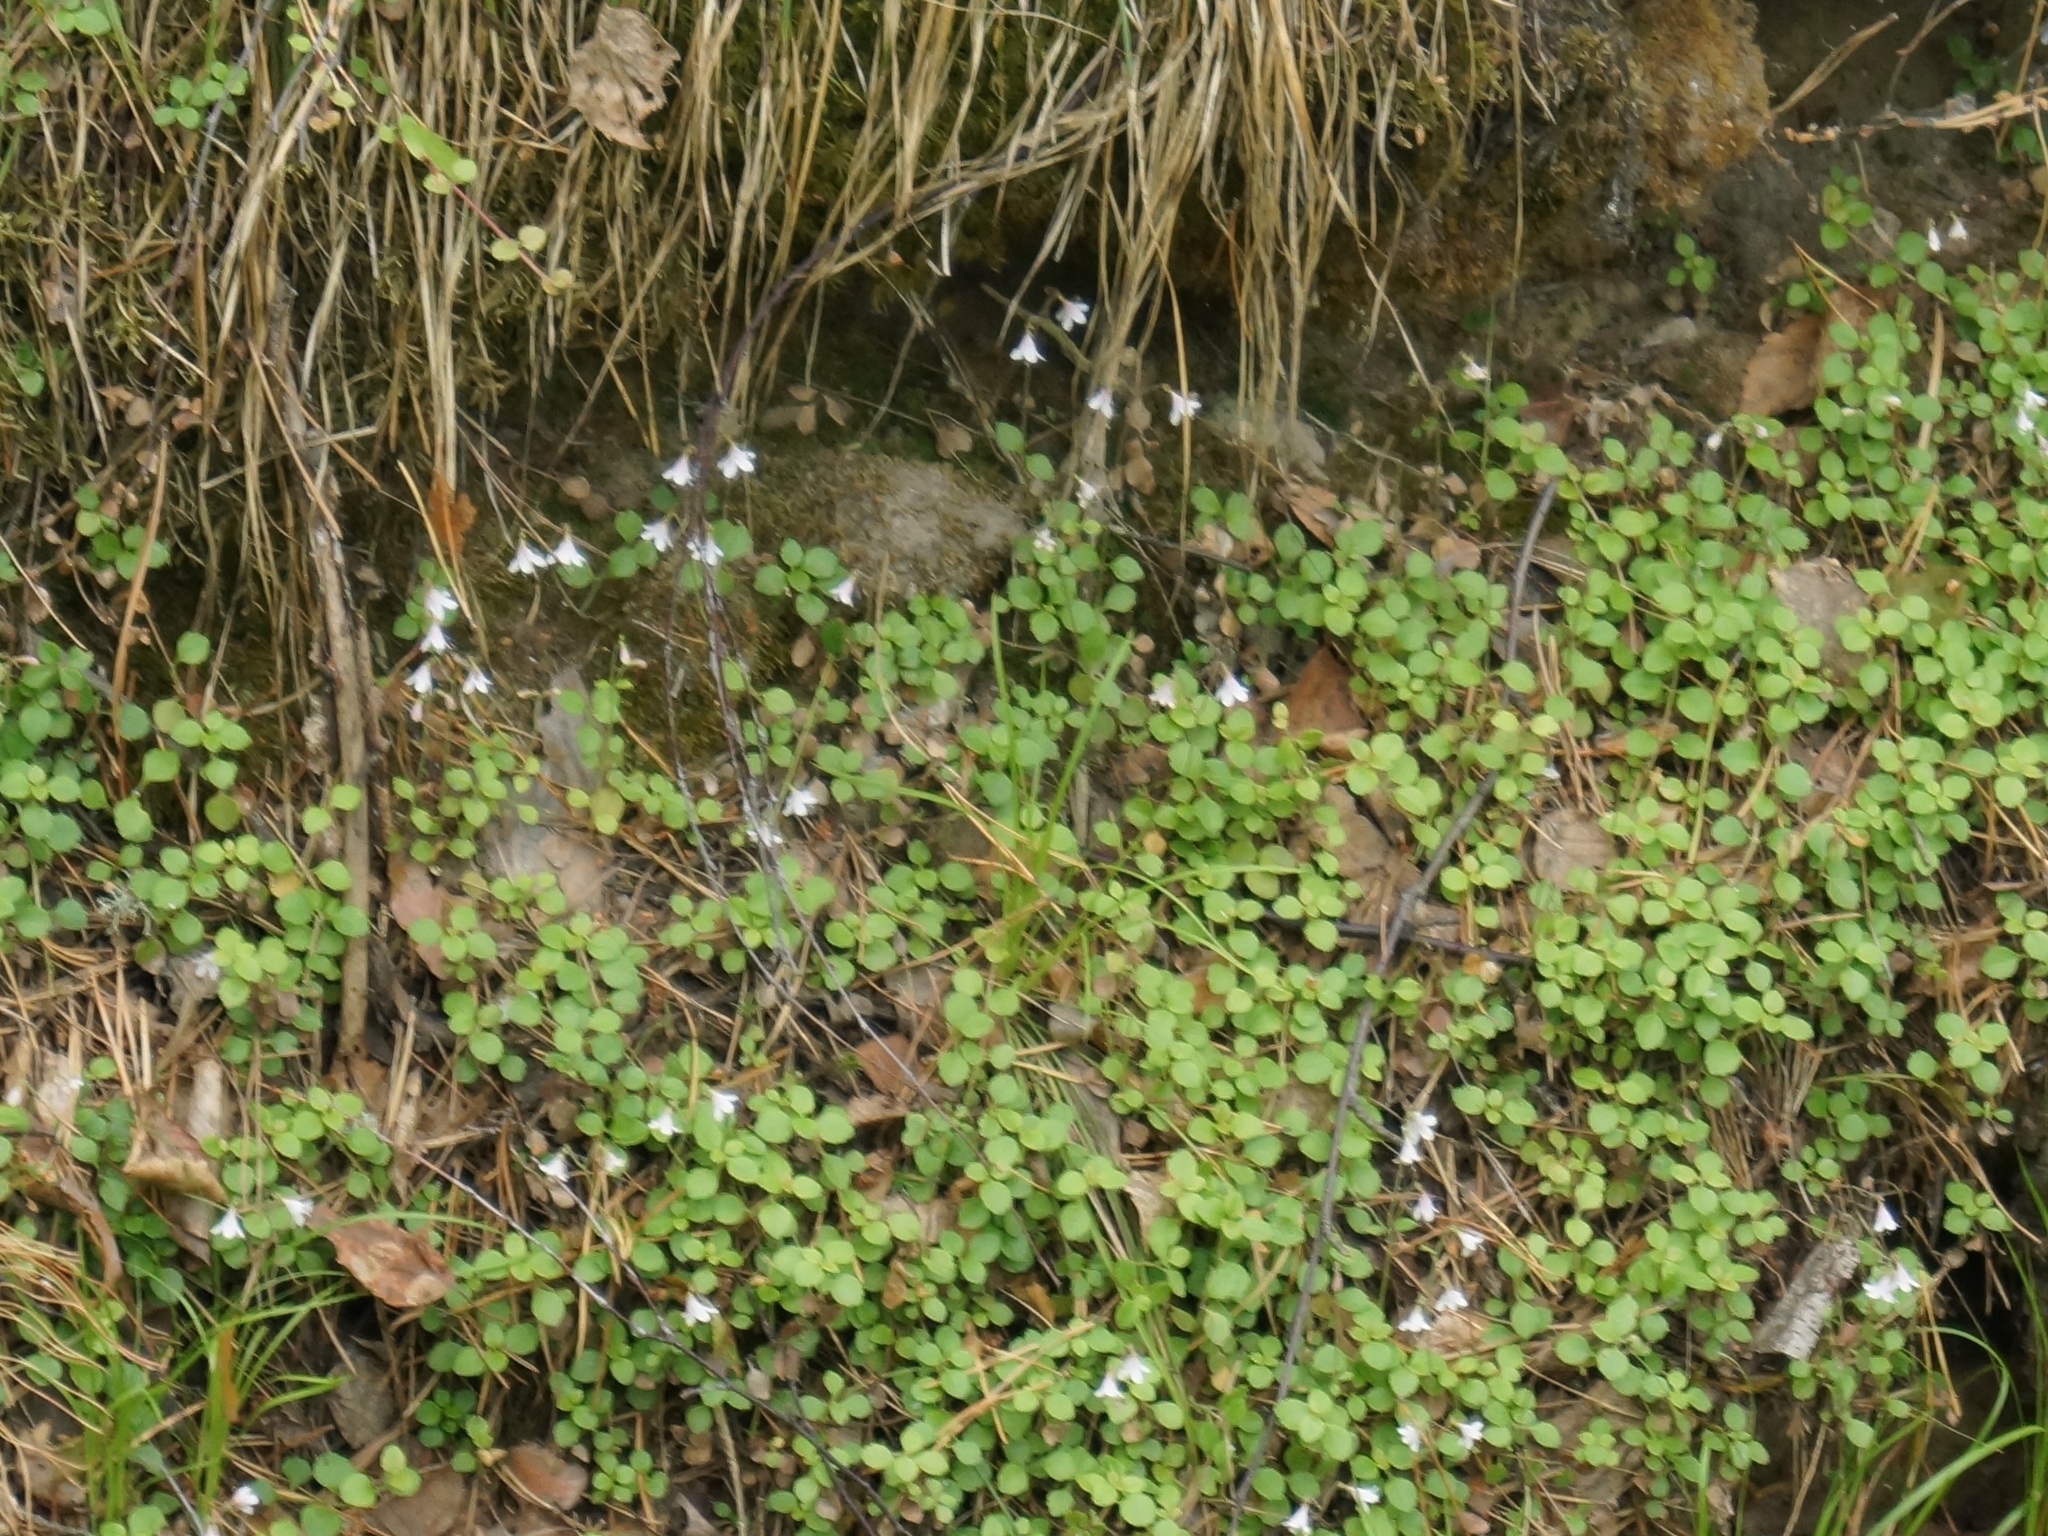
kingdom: Plantae
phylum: Tracheophyta
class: Magnoliopsida
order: Dipsacales
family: Caprifoliaceae
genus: Linnaea
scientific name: Linnaea borealis
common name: Twinflower
